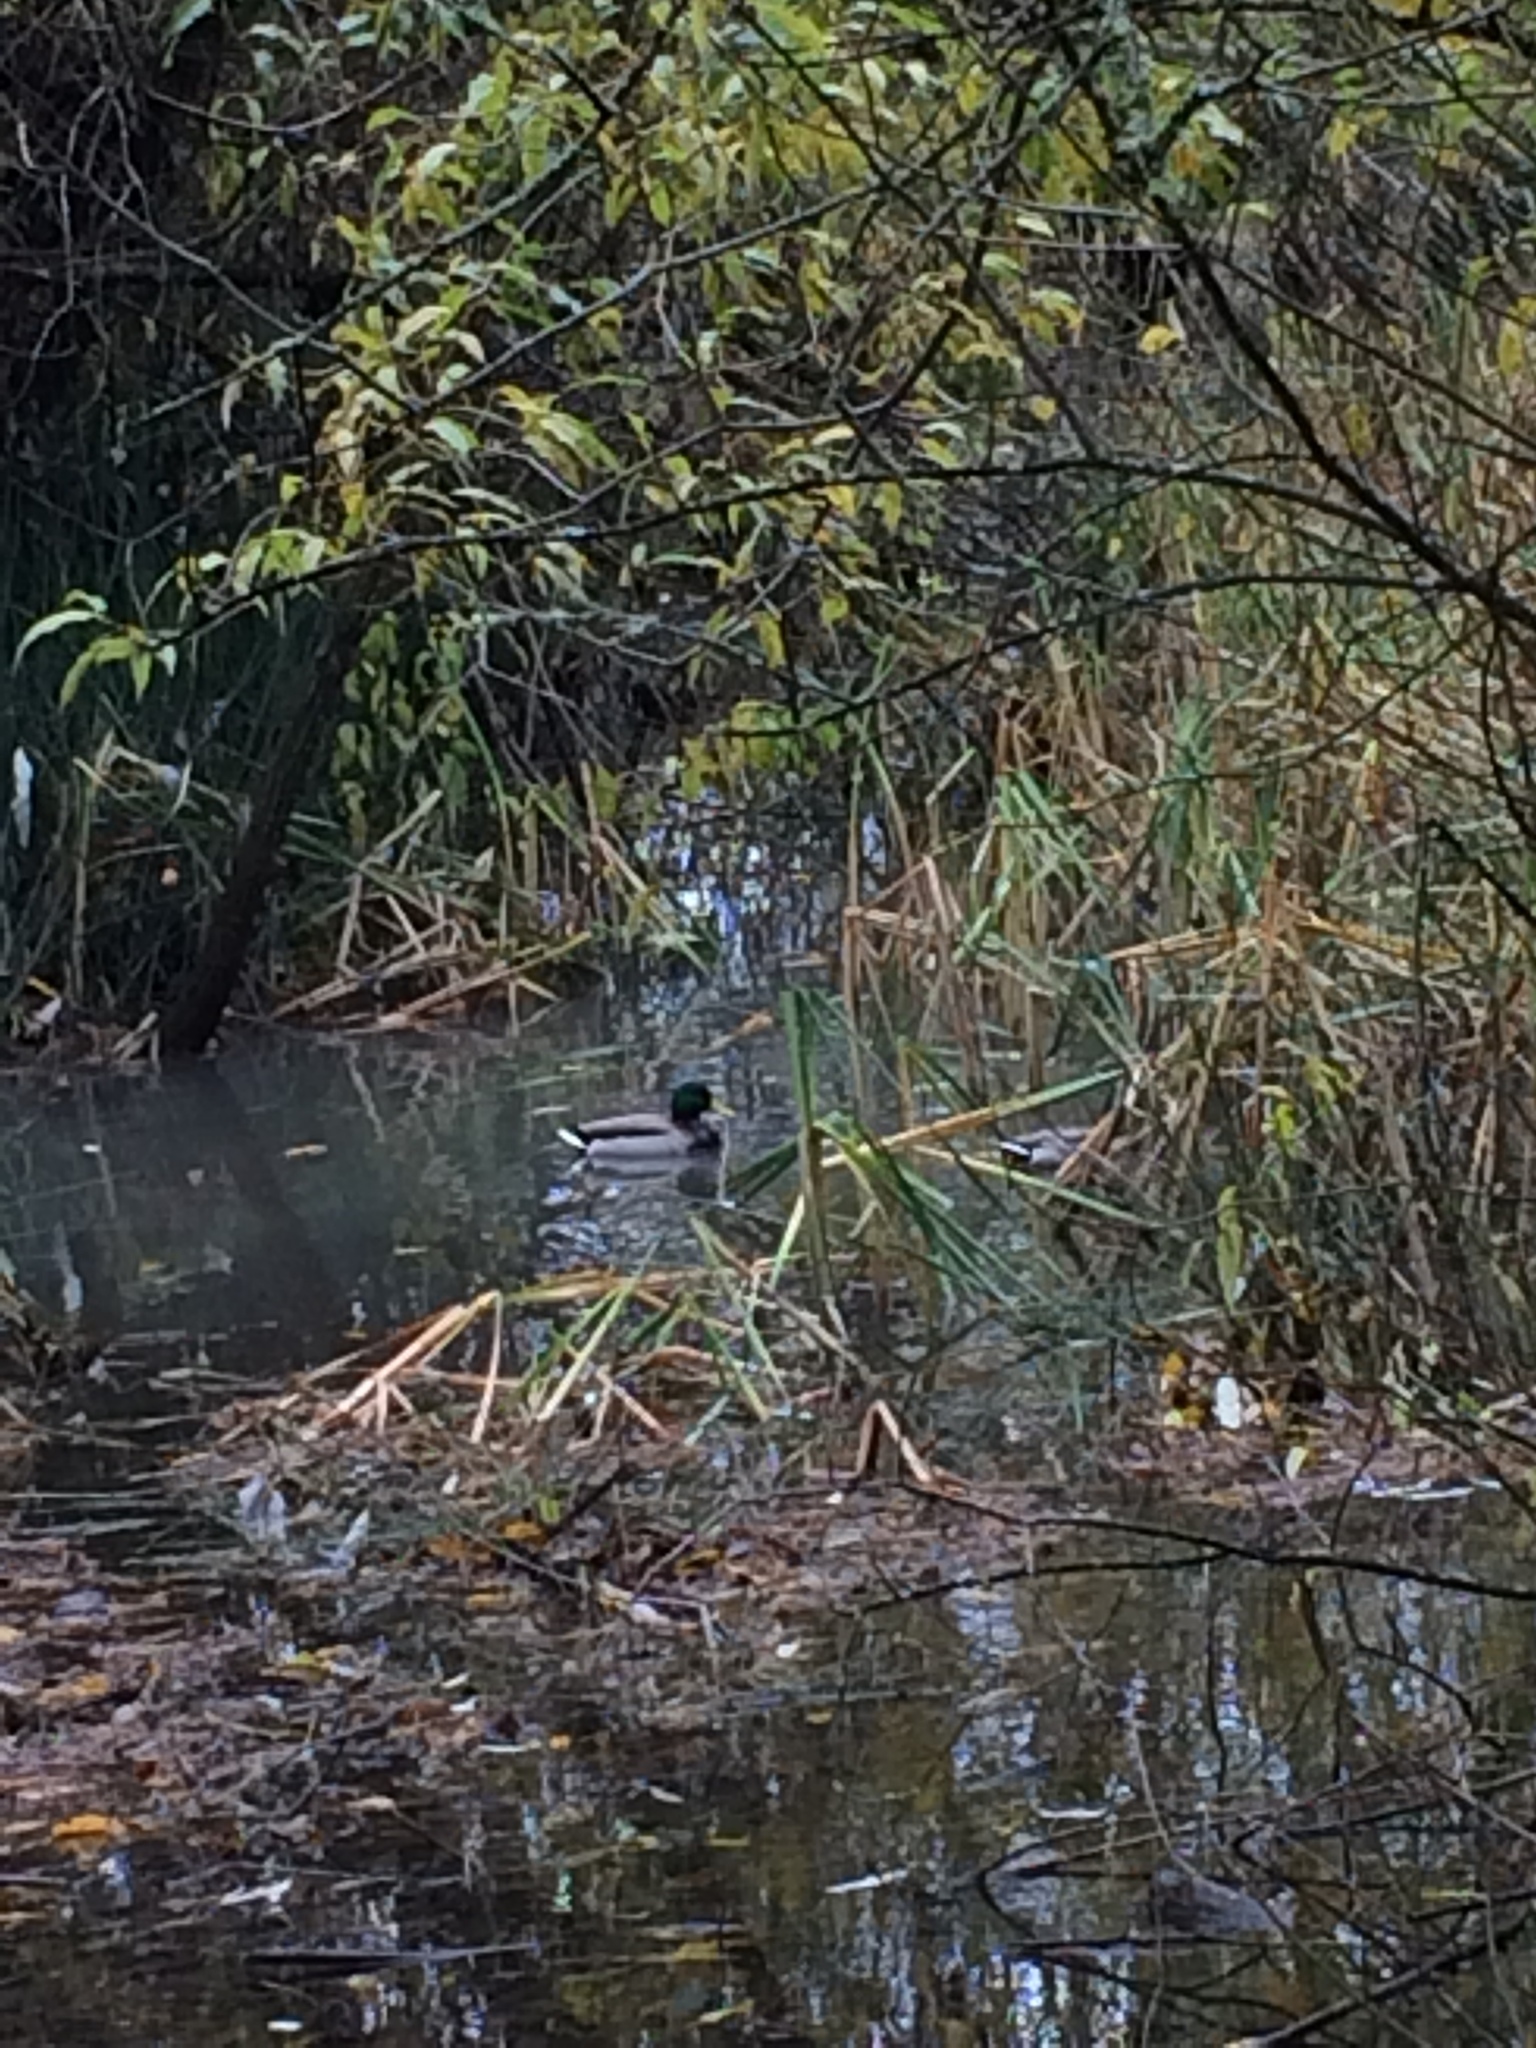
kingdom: Animalia
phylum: Chordata
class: Aves
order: Anseriformes
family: Anatidae
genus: Anas
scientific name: Anas platyrhynchos
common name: Mallard
